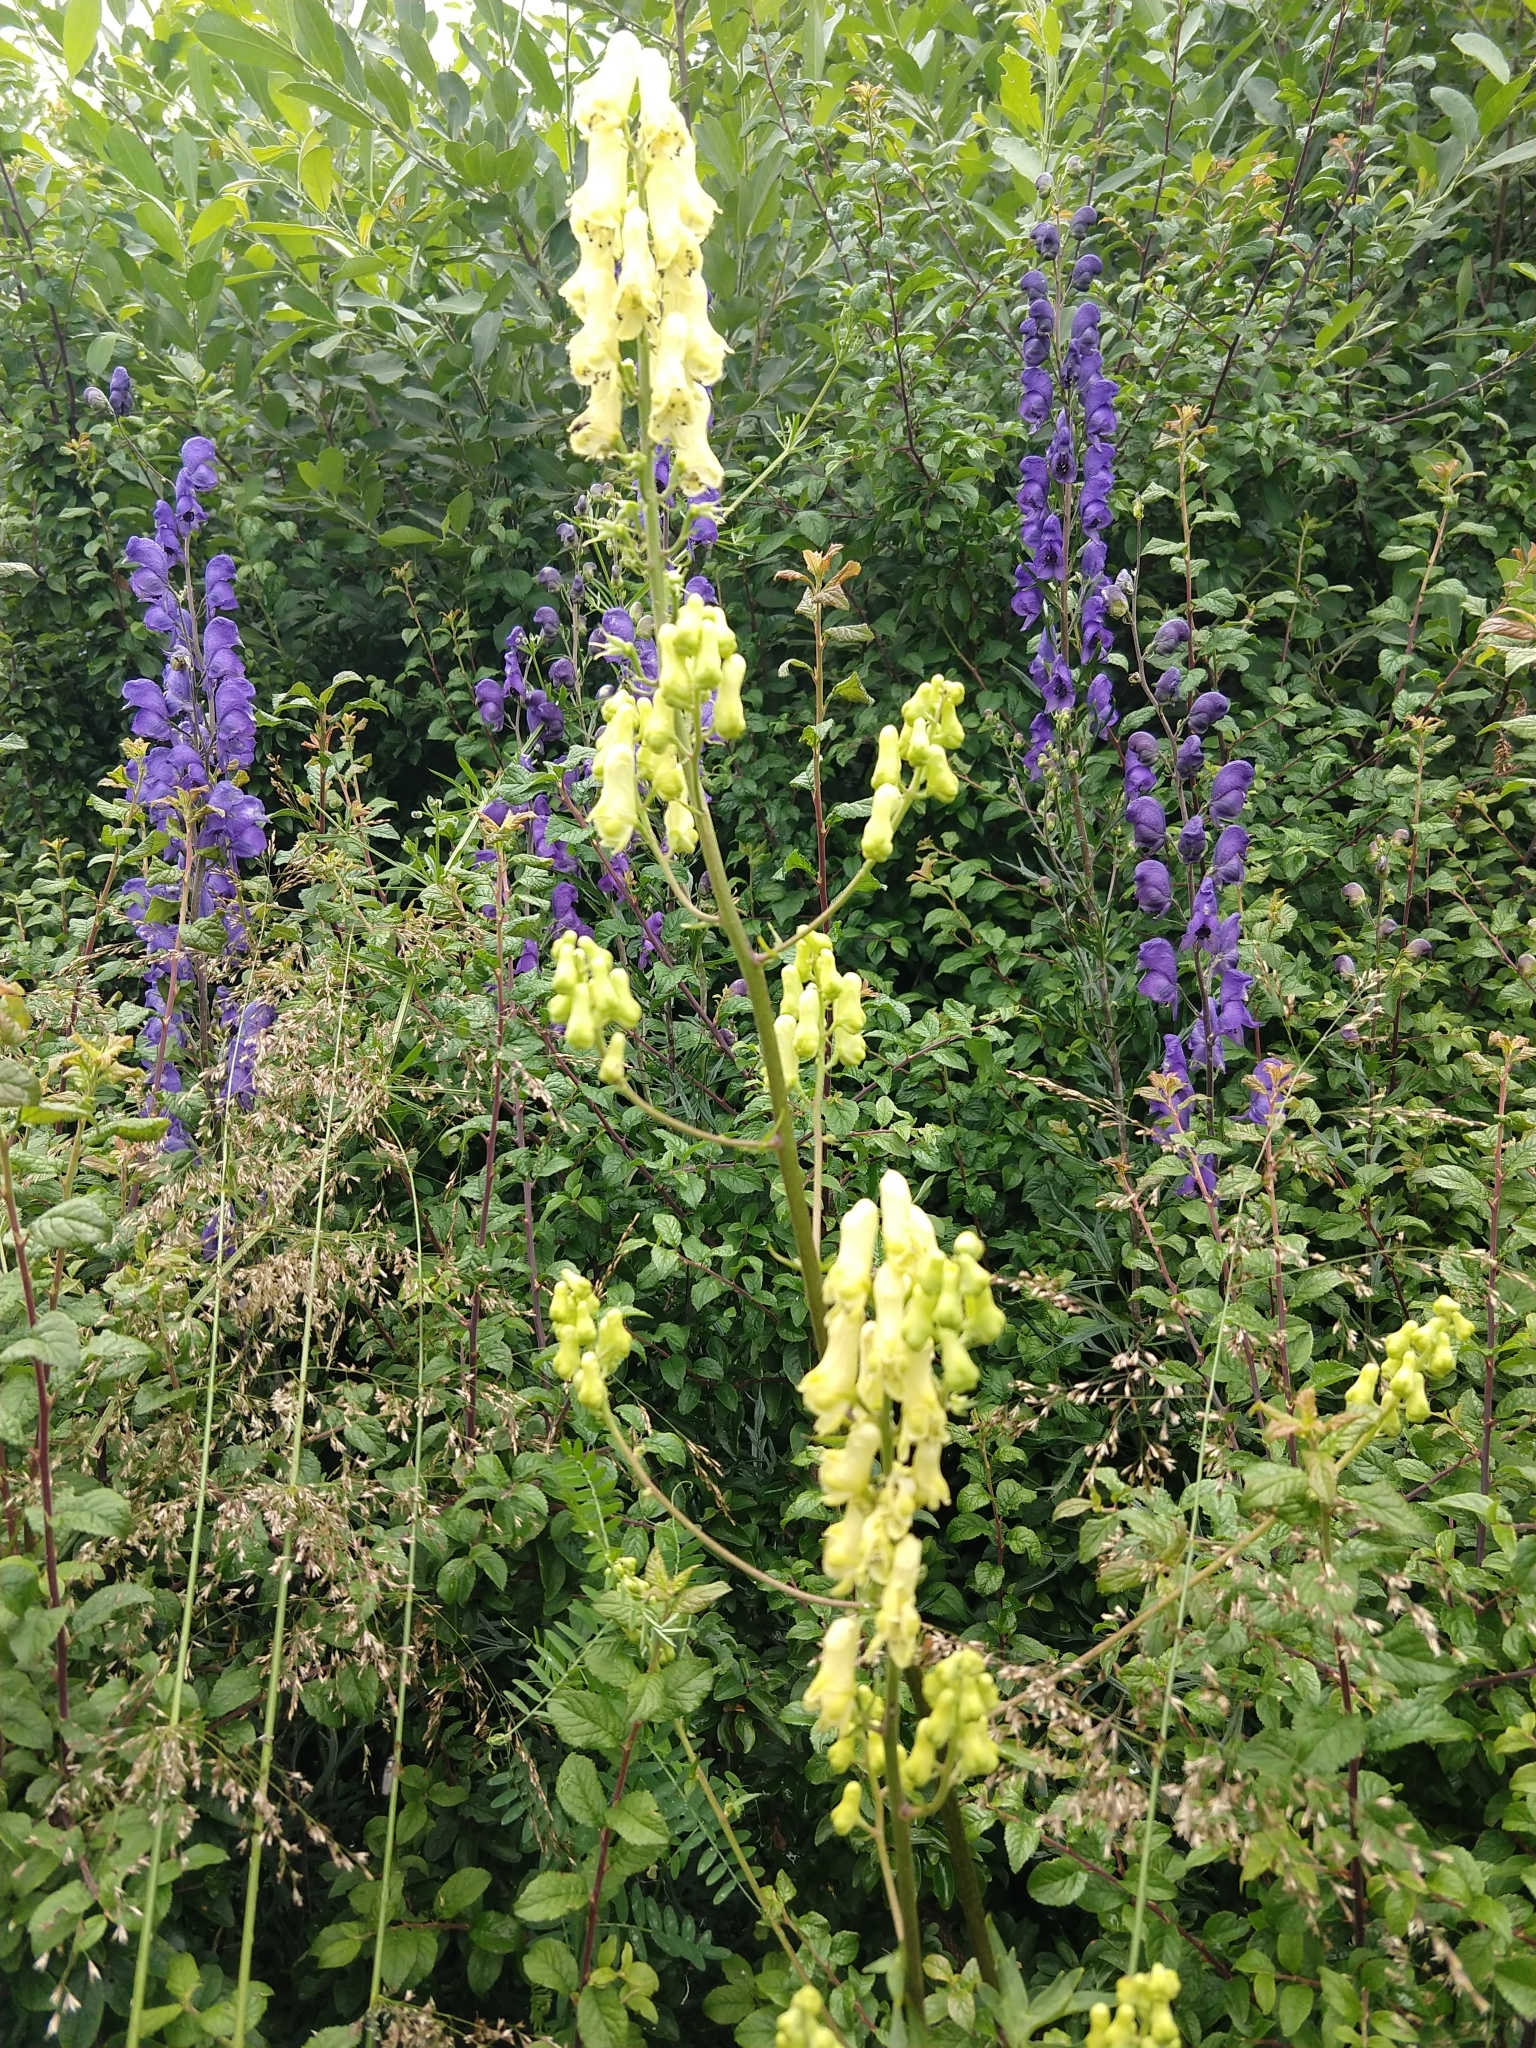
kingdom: Plantae
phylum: Tracheophyta
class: Magnoliopsida
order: Ranunculales
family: Ranunculaceae
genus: Aconitum
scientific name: Aconitum lycoctonum
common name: Wolf's-bane
